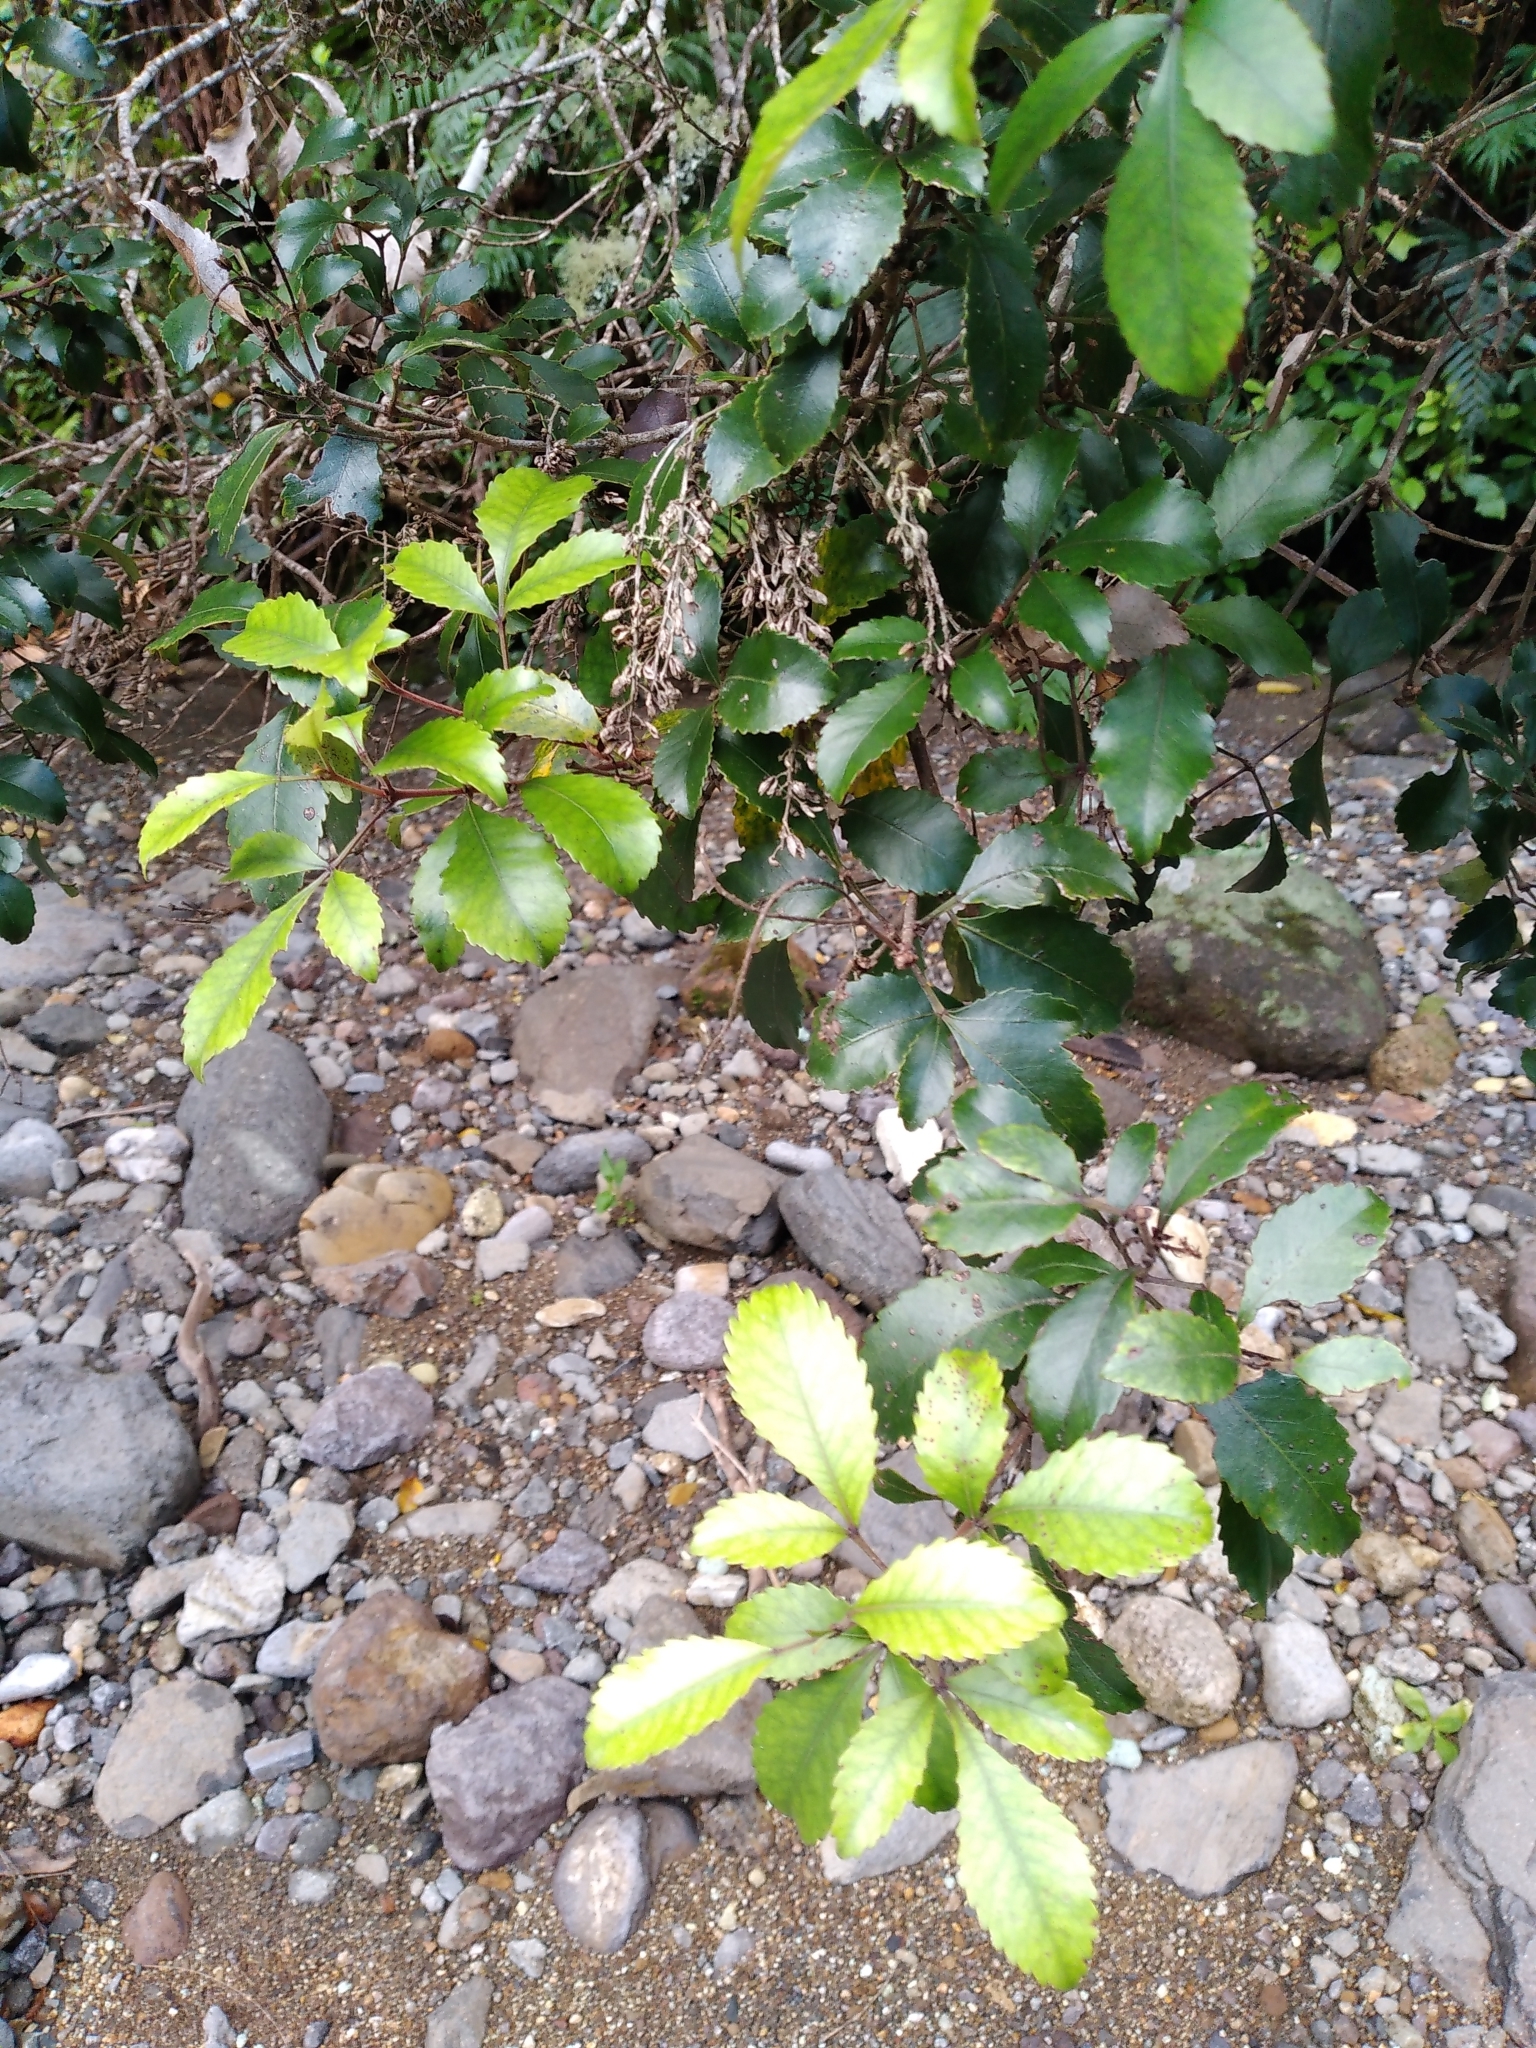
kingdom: Plantae
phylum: Tracheophyta
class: Magnoliopsida
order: Oxalidales
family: Cunoniaceae
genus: Pterophylla
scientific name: Pterophylla sylvicola
